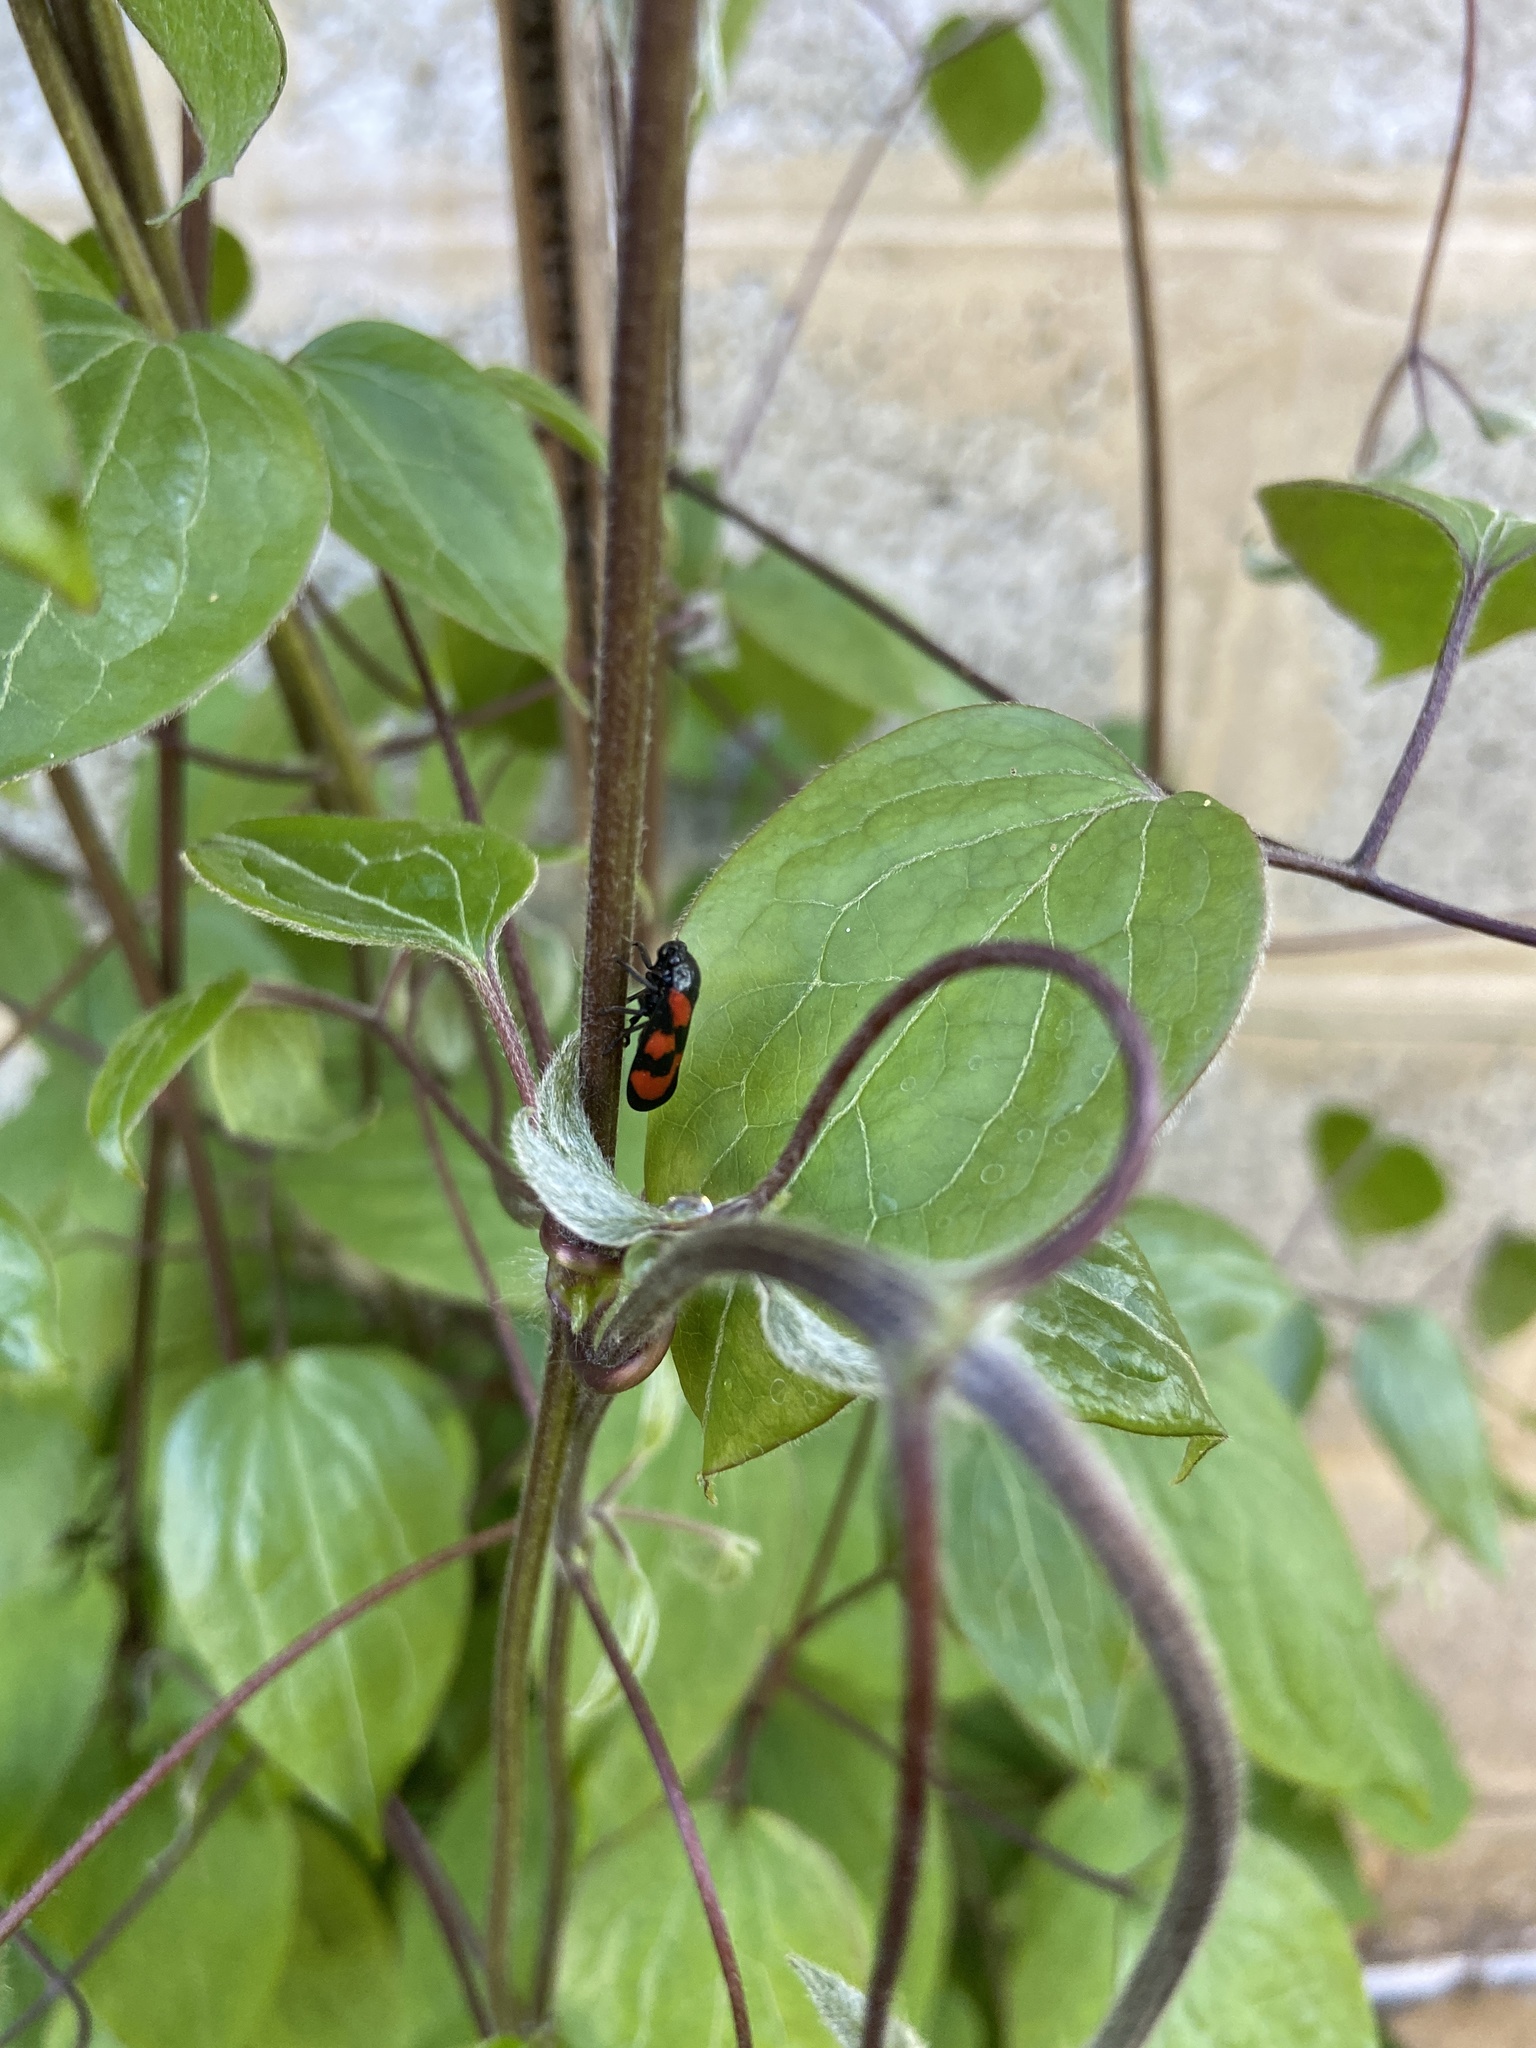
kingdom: Animalia
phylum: Arthropoda
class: Insecta
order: Hemiptera
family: Cercopidae
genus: Cercopis
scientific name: Cercopis vulnerata
